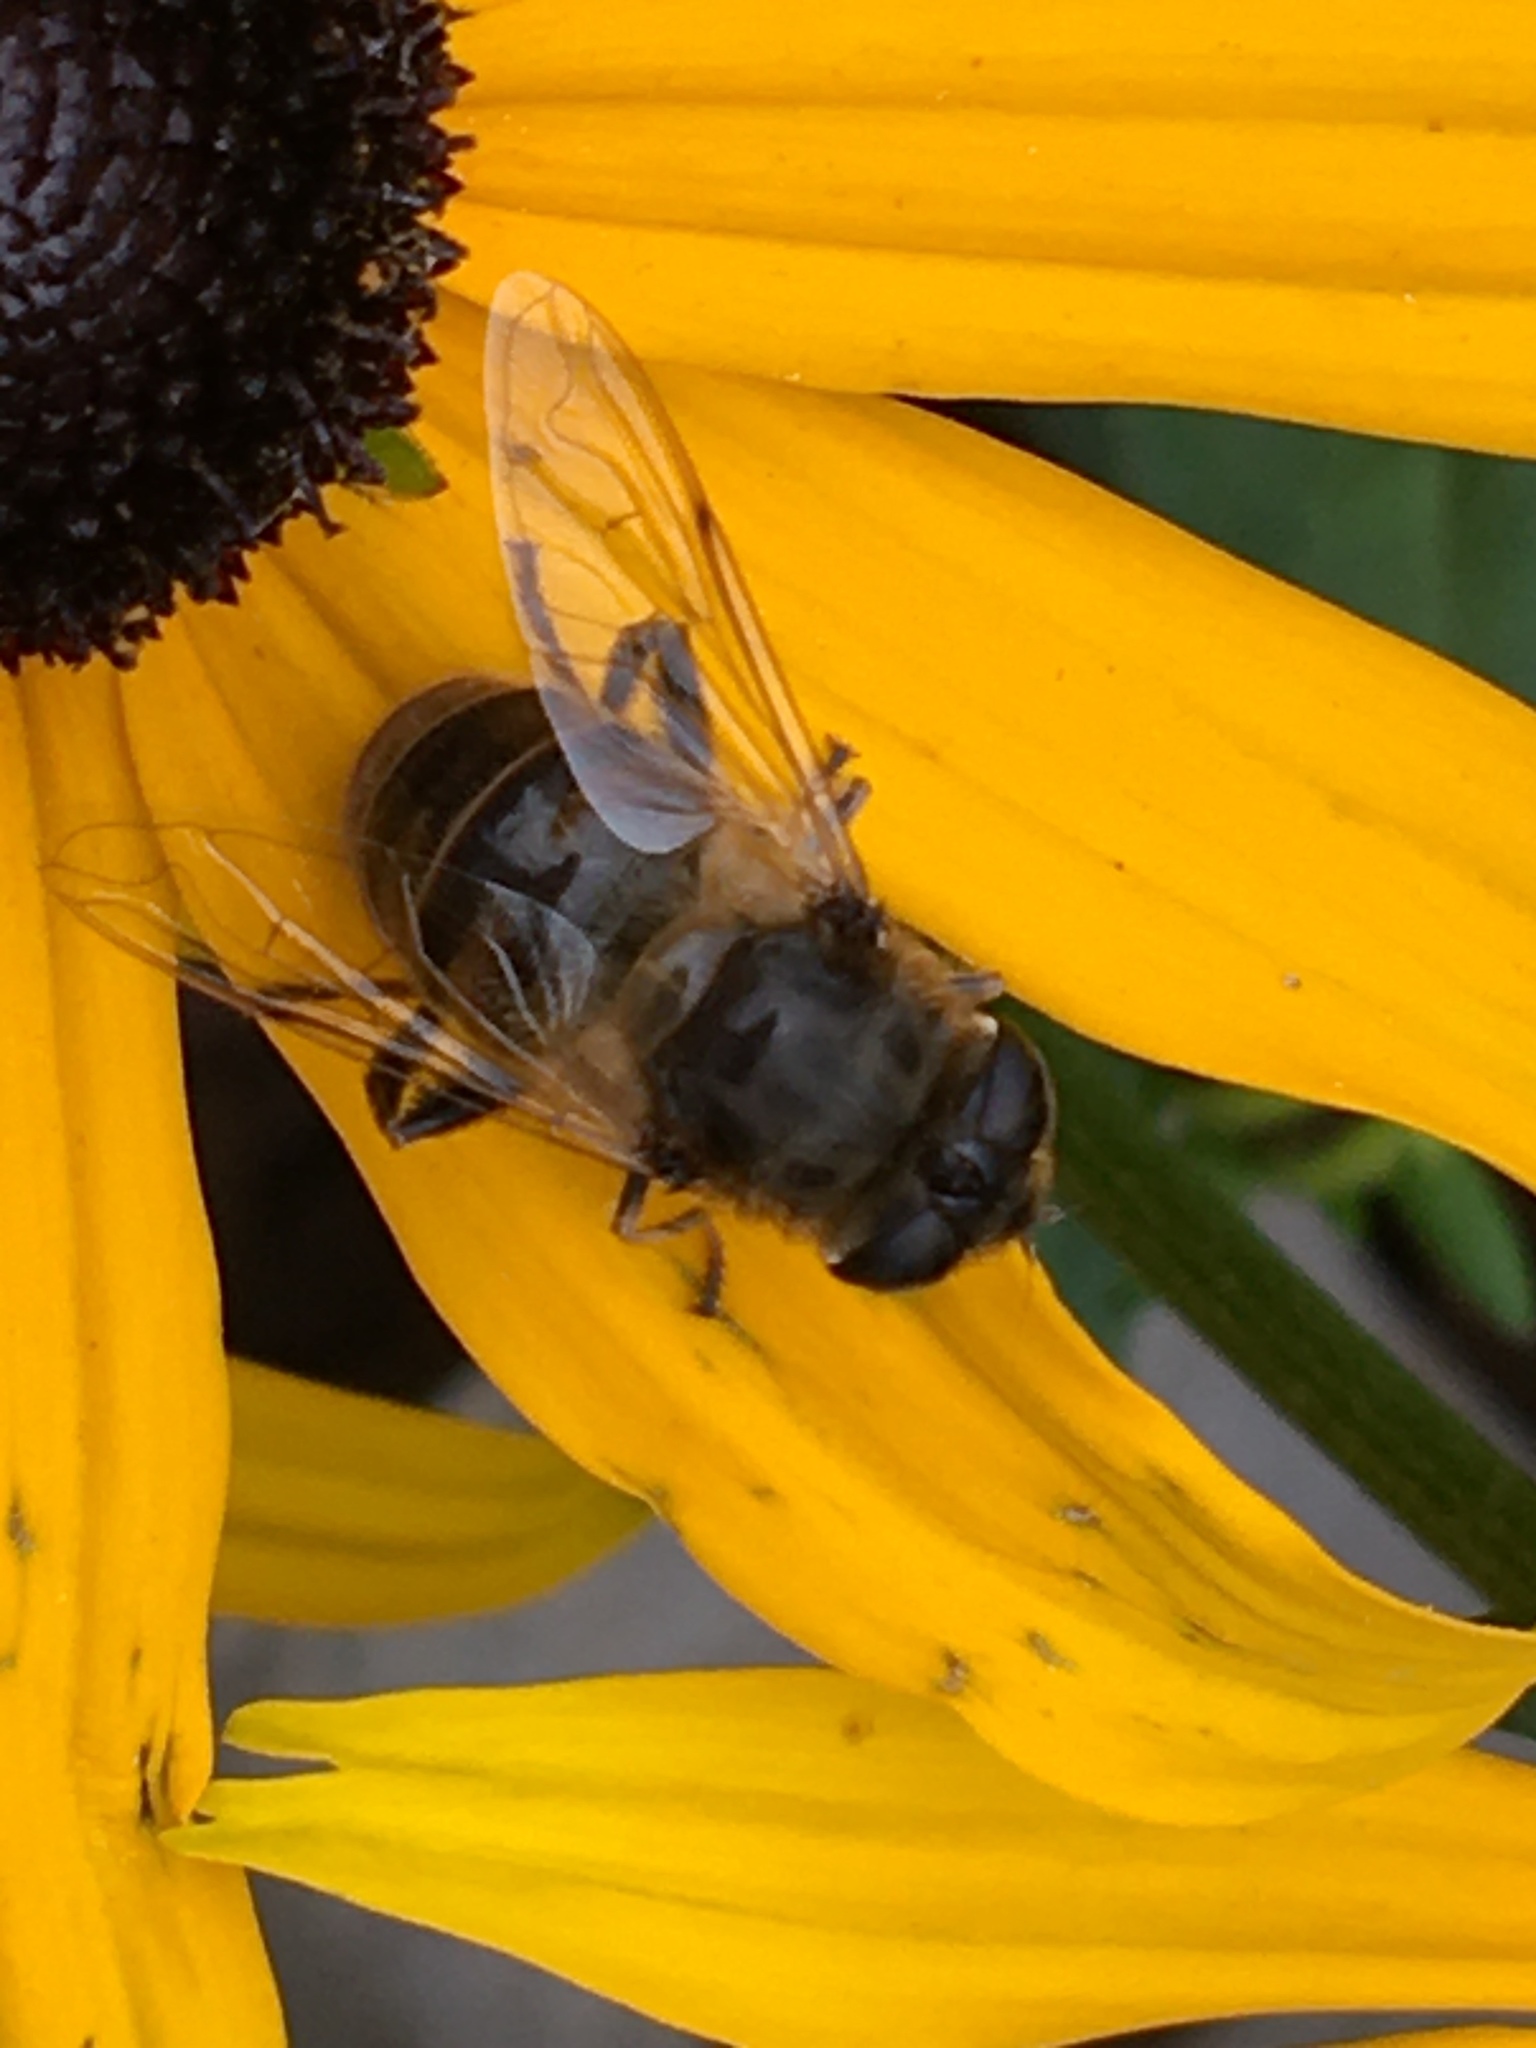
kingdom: Animalia
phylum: Arthropoda
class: Insecta
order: Diptera
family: Syrphidae
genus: Eristalis
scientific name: Eristalis tenax
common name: Drone fly
